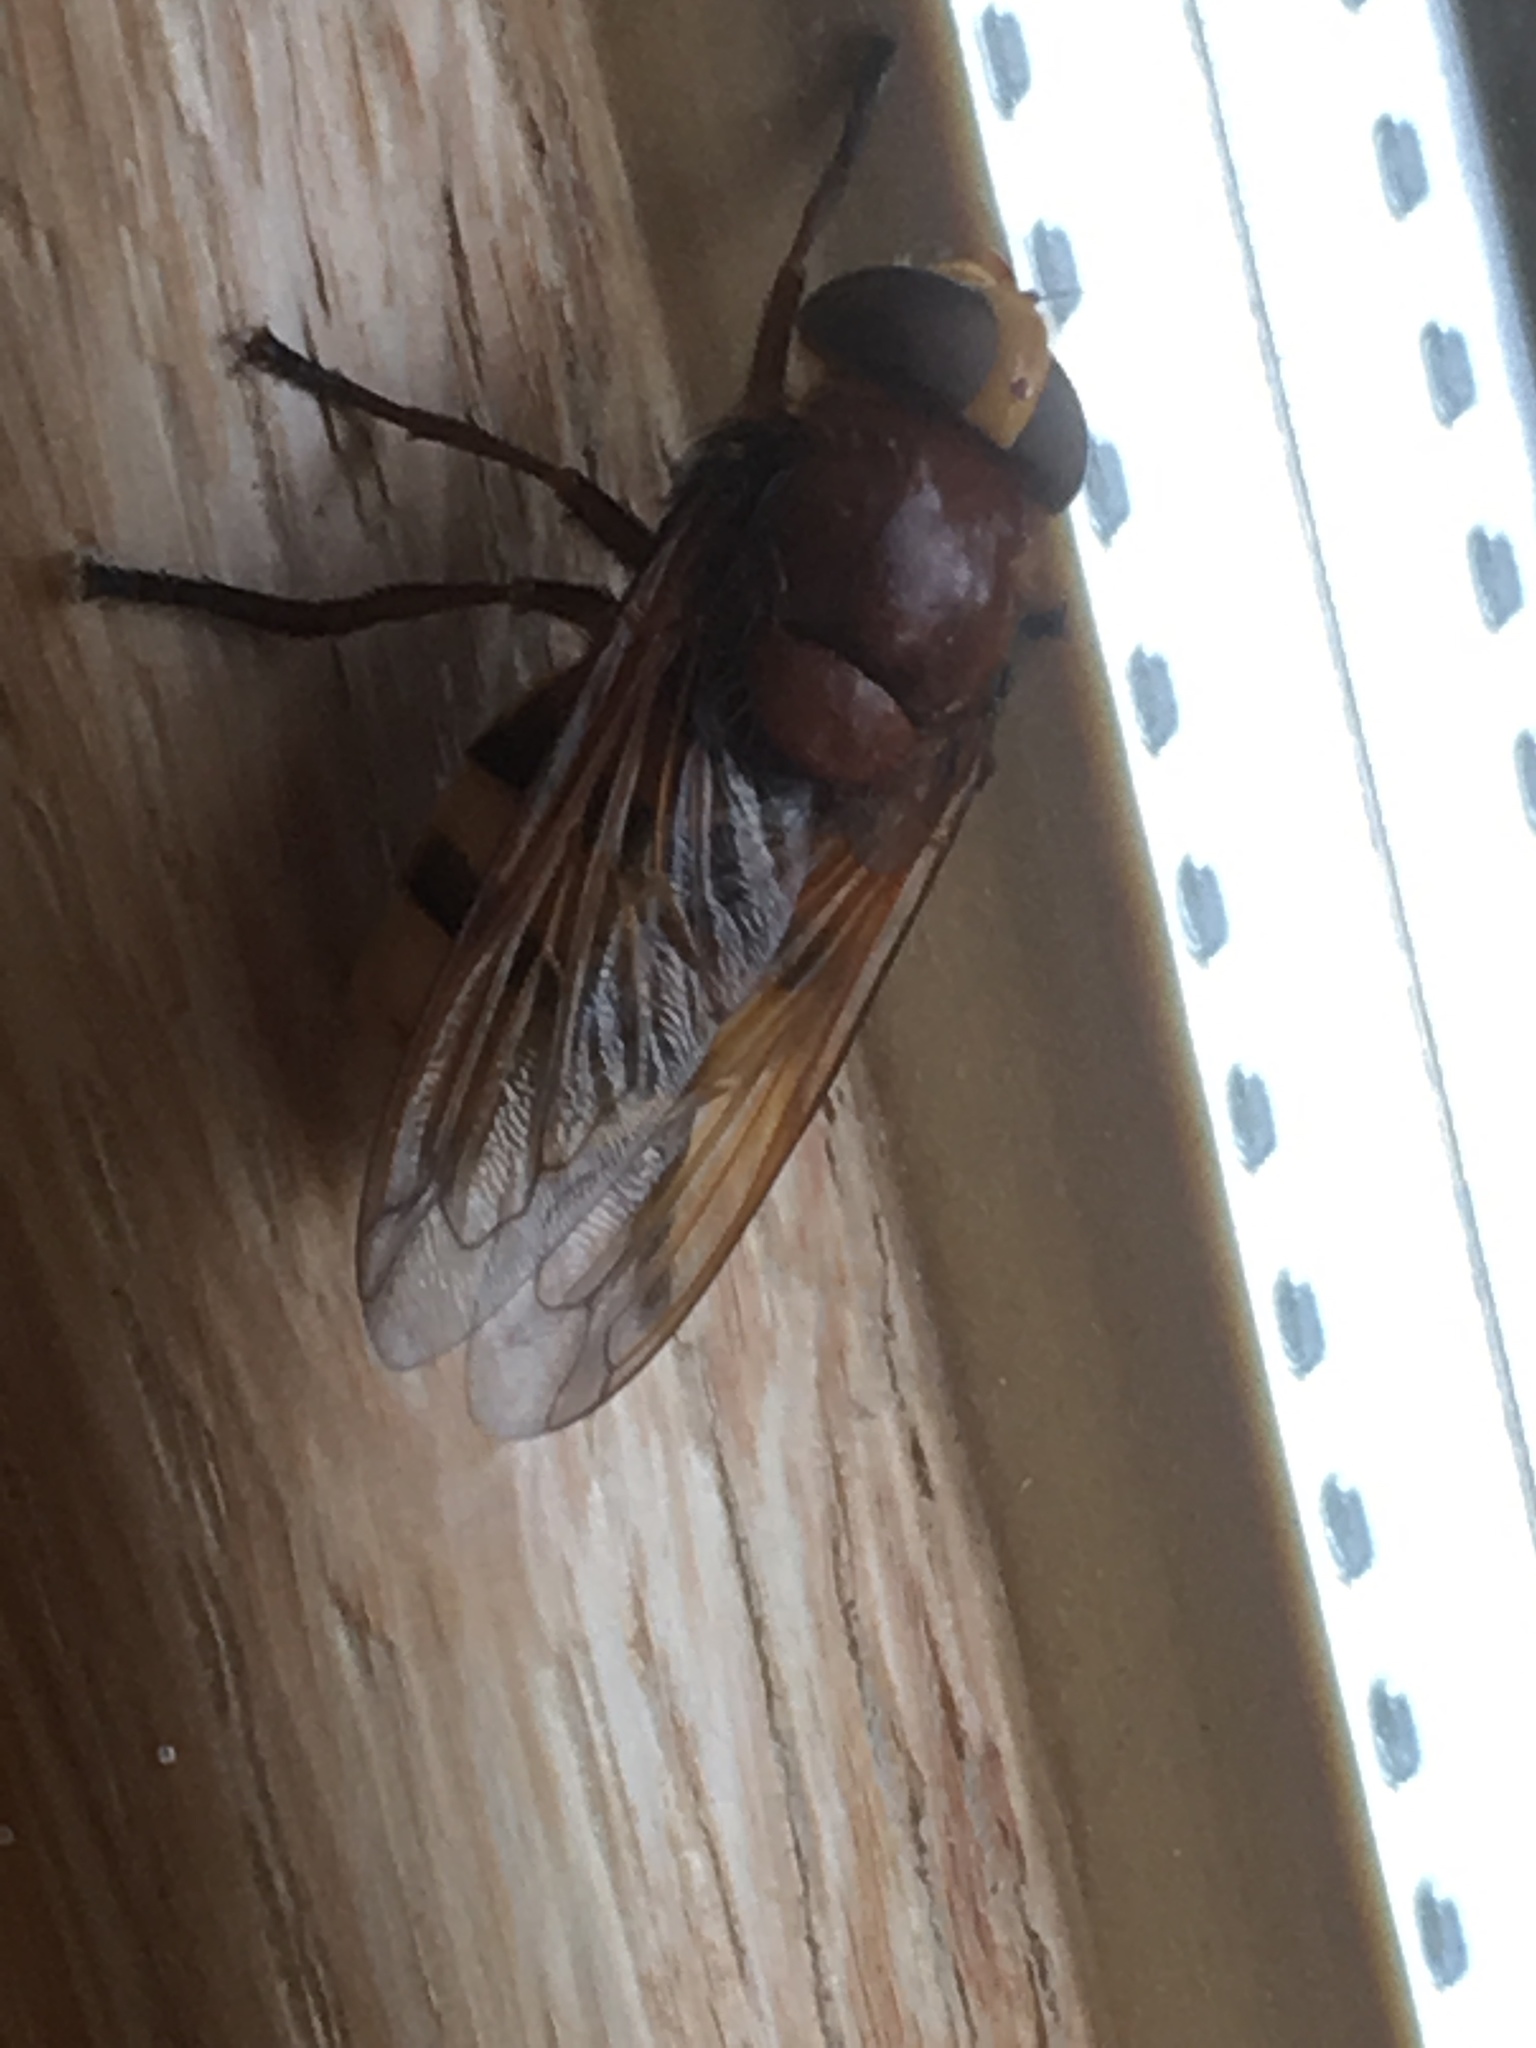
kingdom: Animalia
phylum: Arthropoda
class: Insecta
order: Diptera
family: Syrphidae
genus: Volucella
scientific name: Volucella zonaria
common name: Hornet hoverfly
